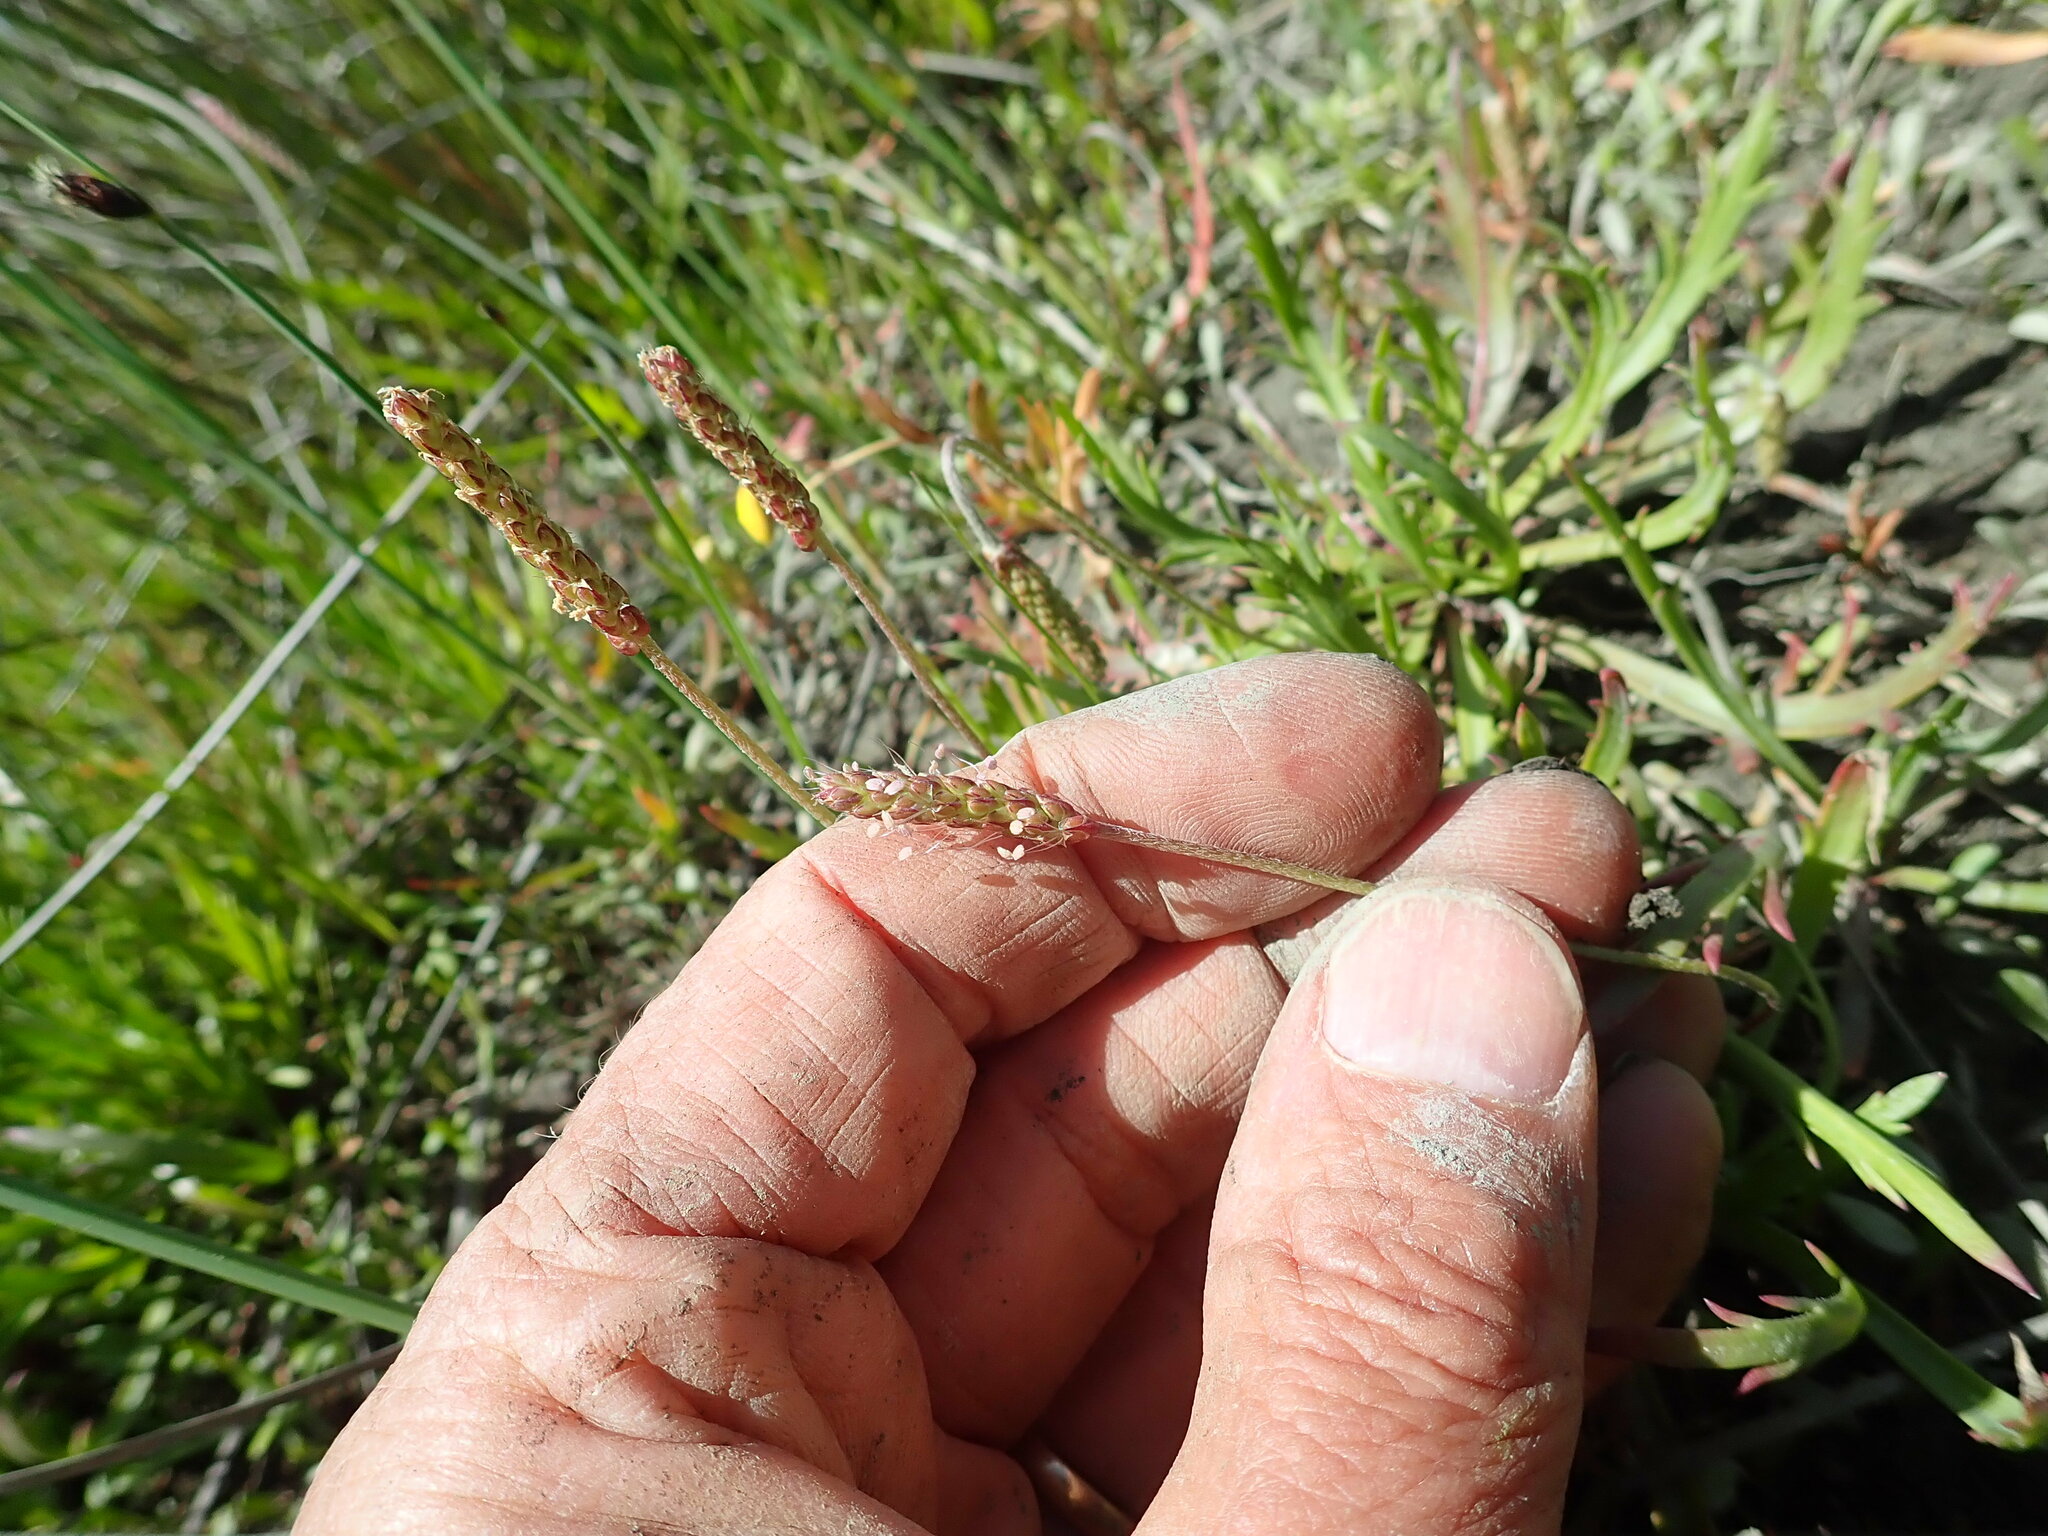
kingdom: Plantae
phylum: Tracheophyta
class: Magnoliopsida
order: Lamiales
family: Plantaginaceae
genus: Plantago
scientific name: Plantago coronopus
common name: Buck's-horn plantain
